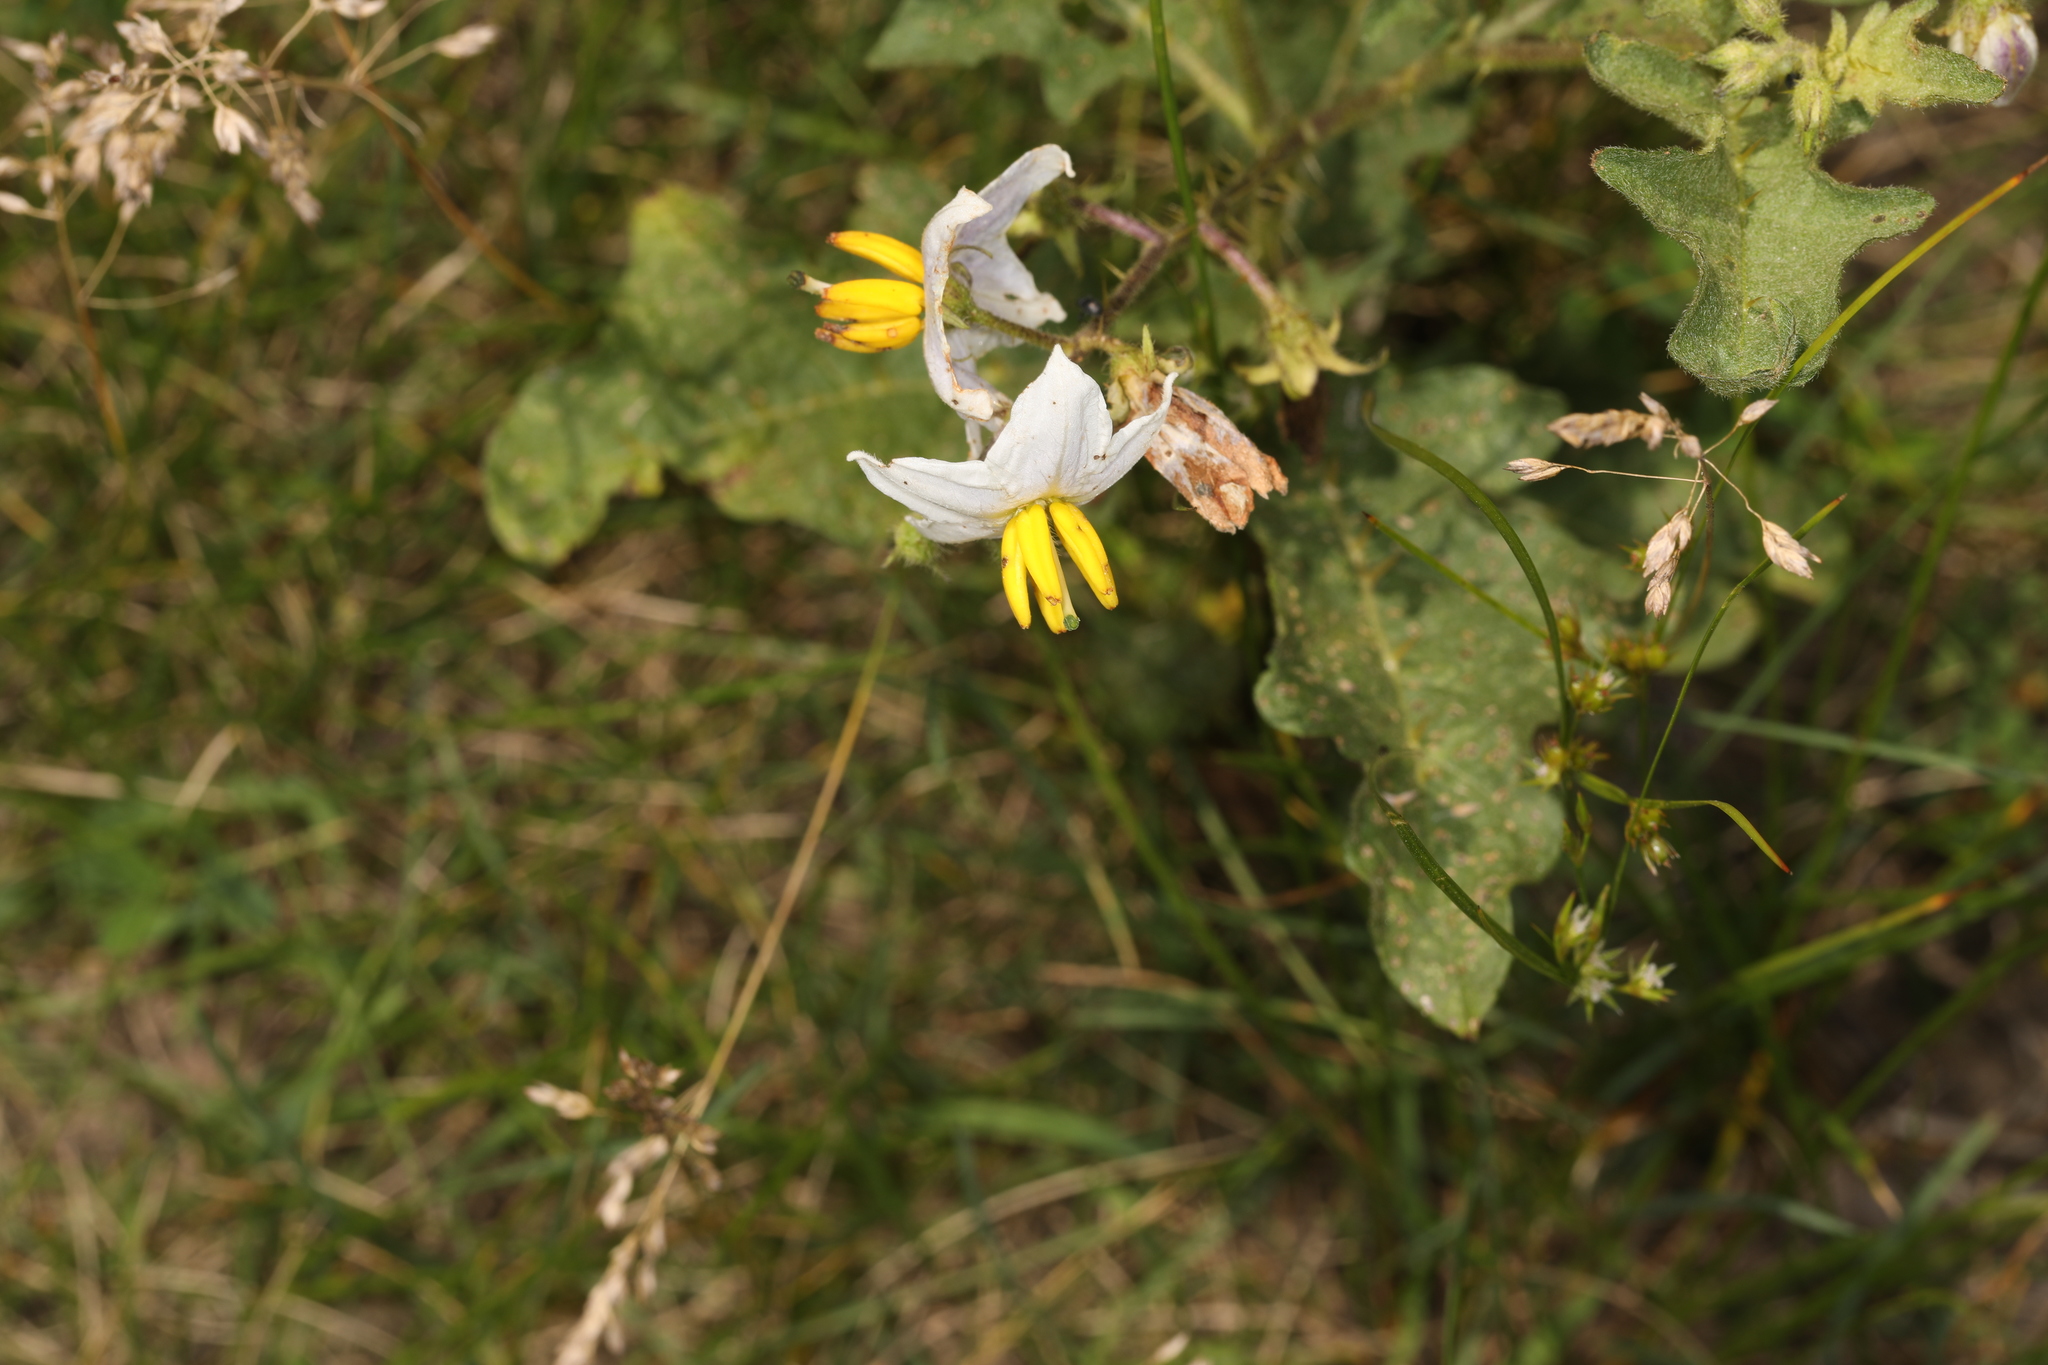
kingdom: Plantae
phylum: Tracheophyta
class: Magnoliopsida
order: Solanales
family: Solanaceae
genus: Solanum
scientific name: Solanum carolinense
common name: Horse-nettle
